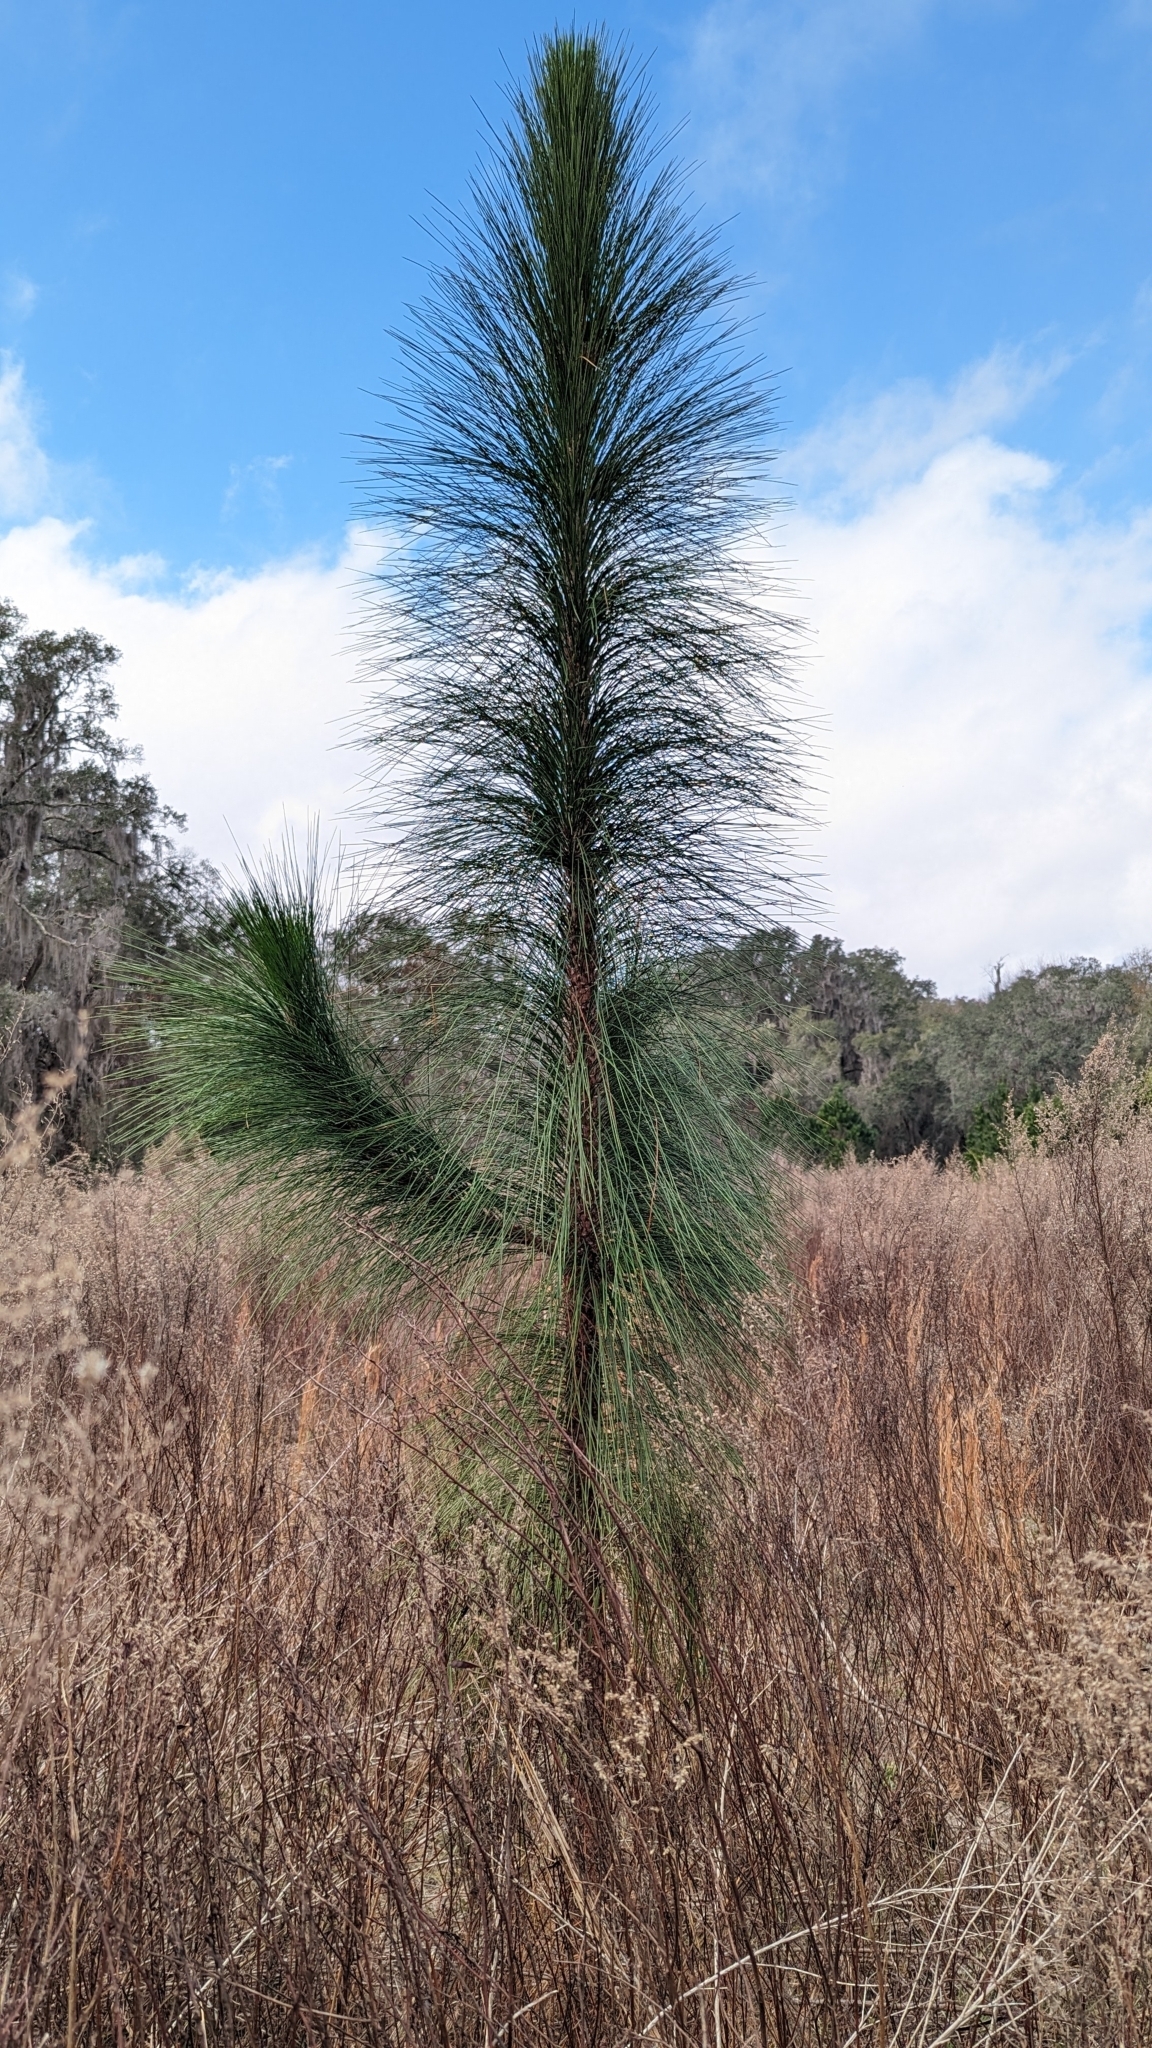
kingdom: Plantae
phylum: Tracheophyta
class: Pinopsida
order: Pinales
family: Pinaceae
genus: Pinus
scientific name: Pinus palustris
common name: Longleaf pine
